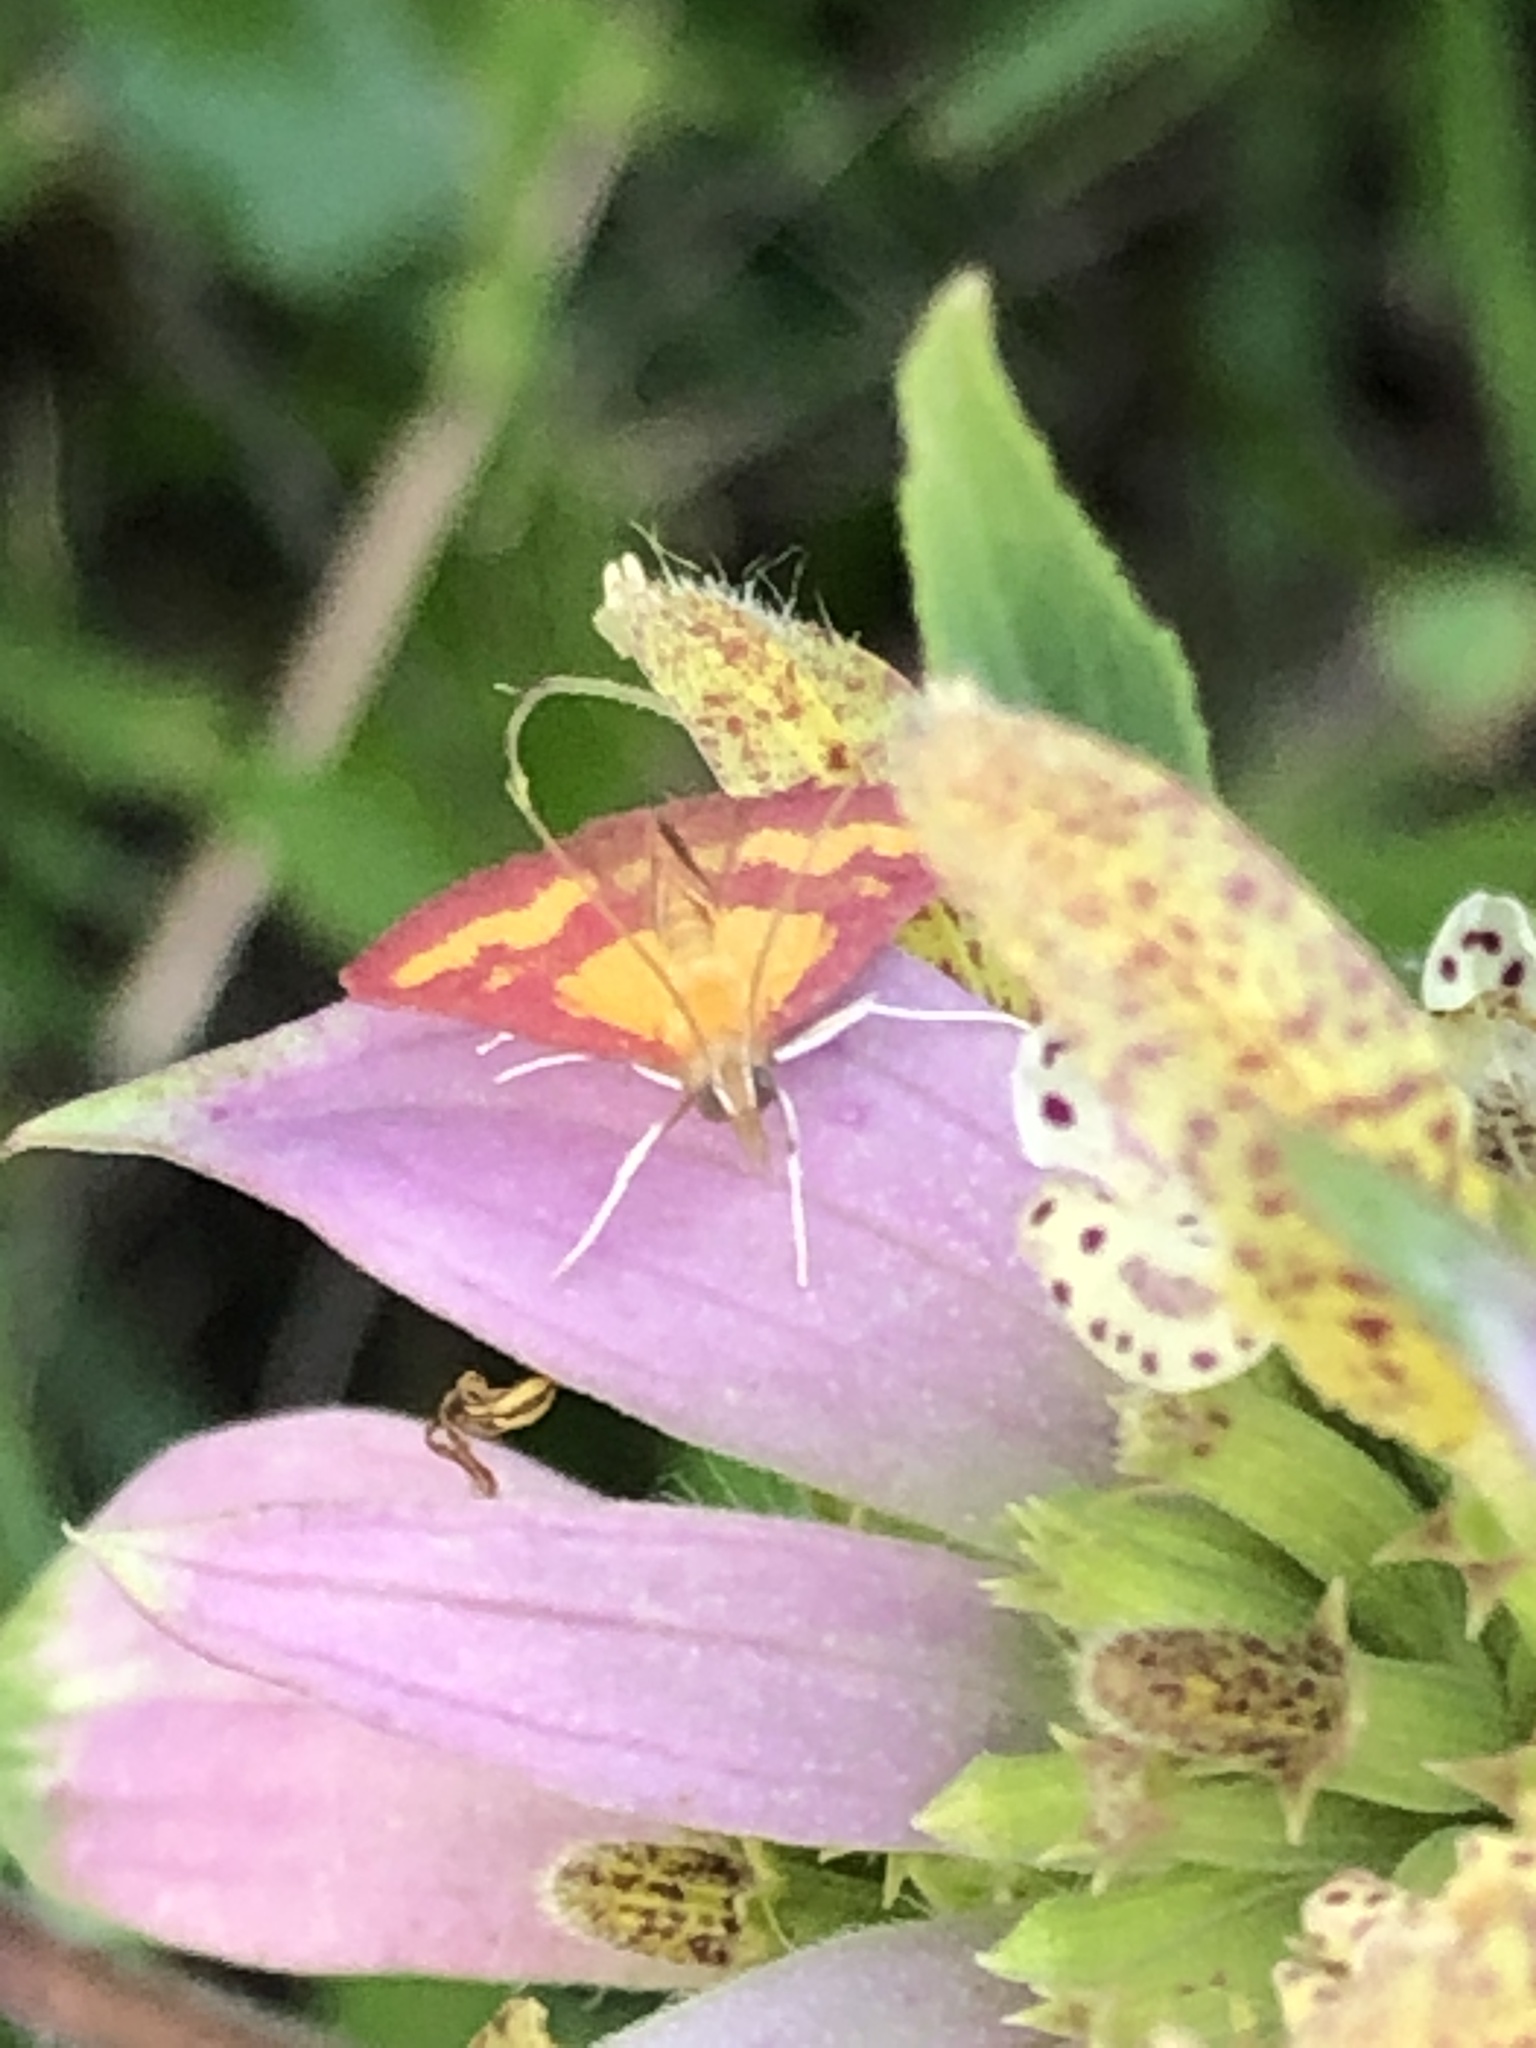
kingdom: Animalia
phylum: Arthropoda
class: Insecta
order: Lepidoptera
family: Crambidae
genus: Pyrausta
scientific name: Pyrausta laticlavia
